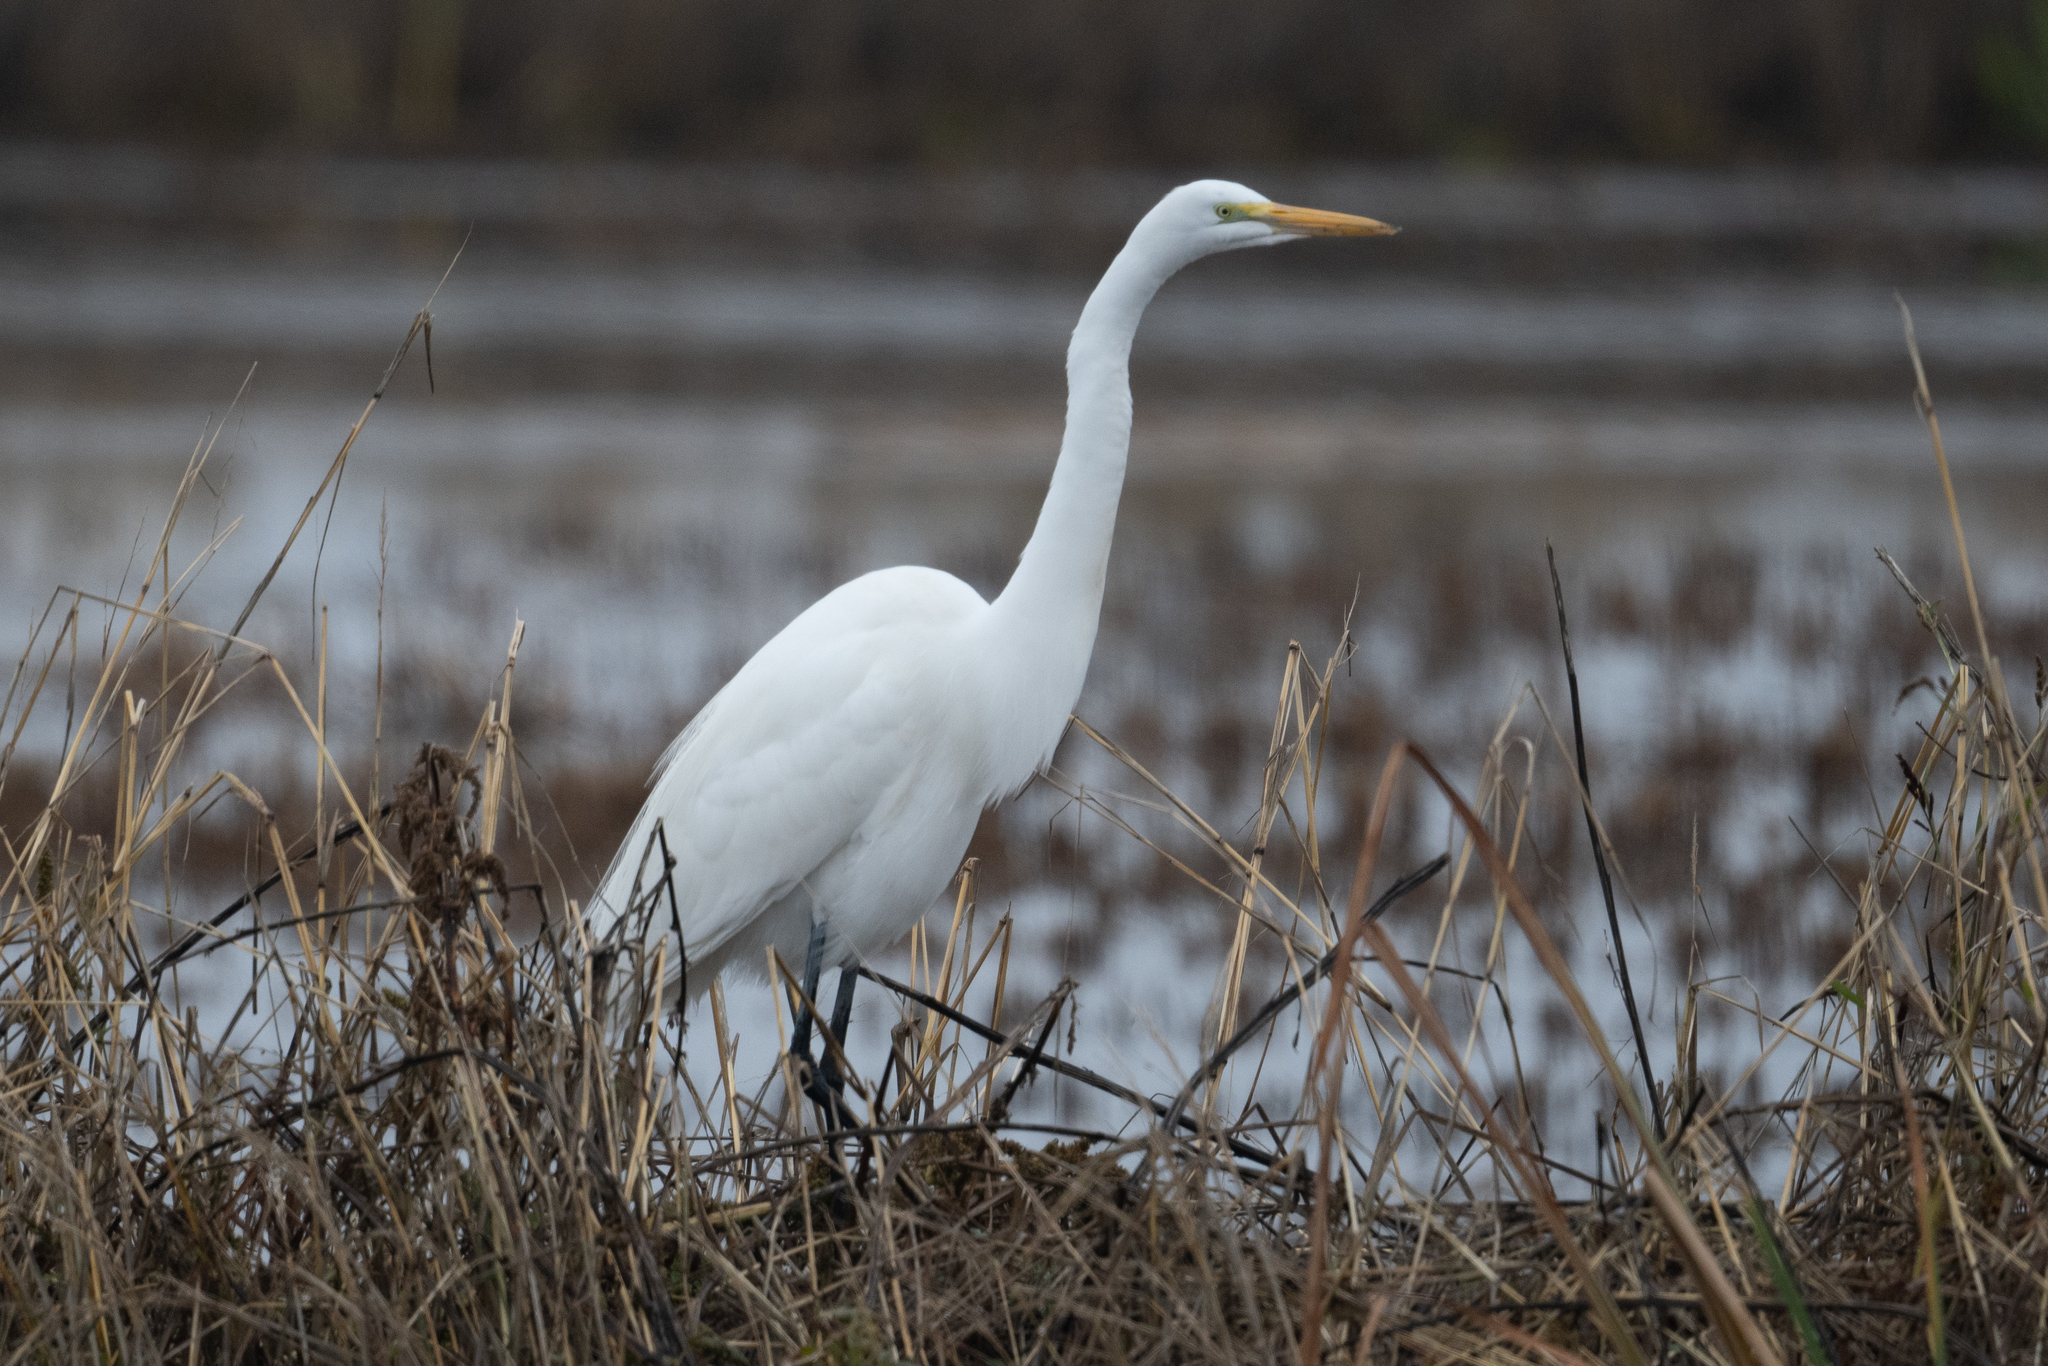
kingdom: Animalia
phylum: Chordata
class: Aves
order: Pelecaniformes
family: Ardeidae
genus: Ardea
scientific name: Ardea alba
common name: Great egret
